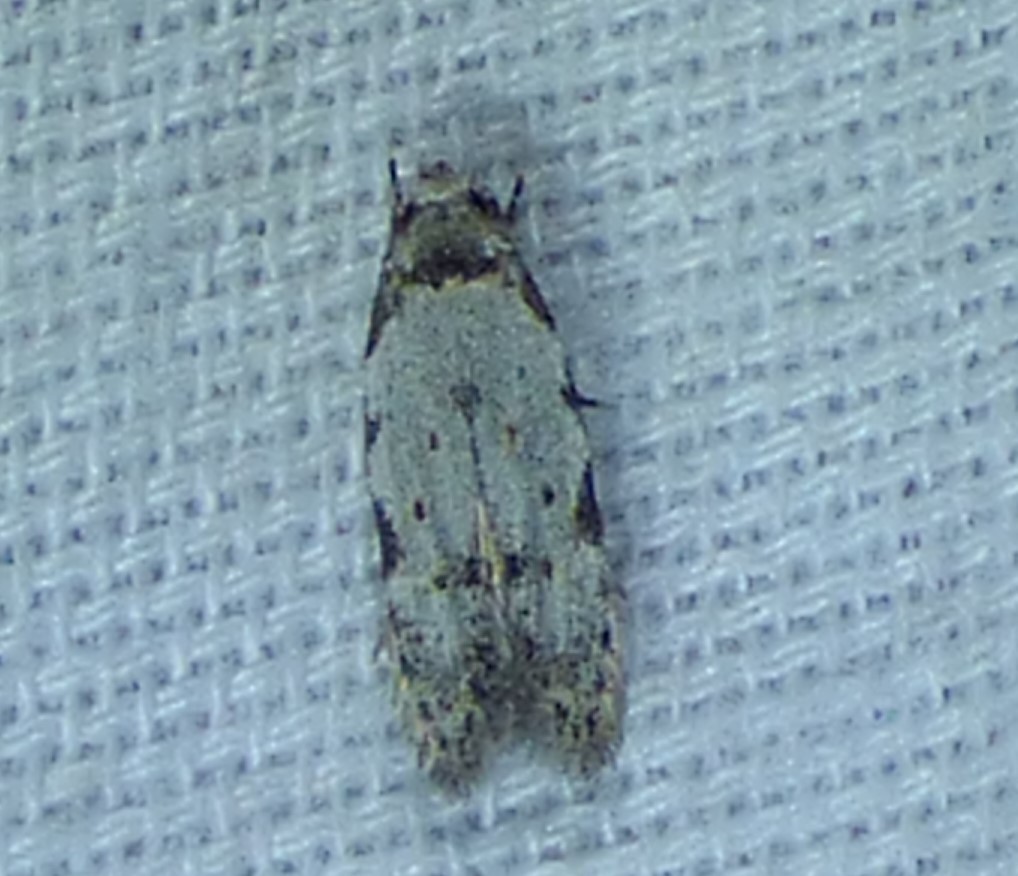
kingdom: Animalia
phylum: Arthropoda
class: Insecta
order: Lepidoptera
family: Autostichidae
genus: Taygete
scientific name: Taygete attributella
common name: Triangle-marked twirler moth
